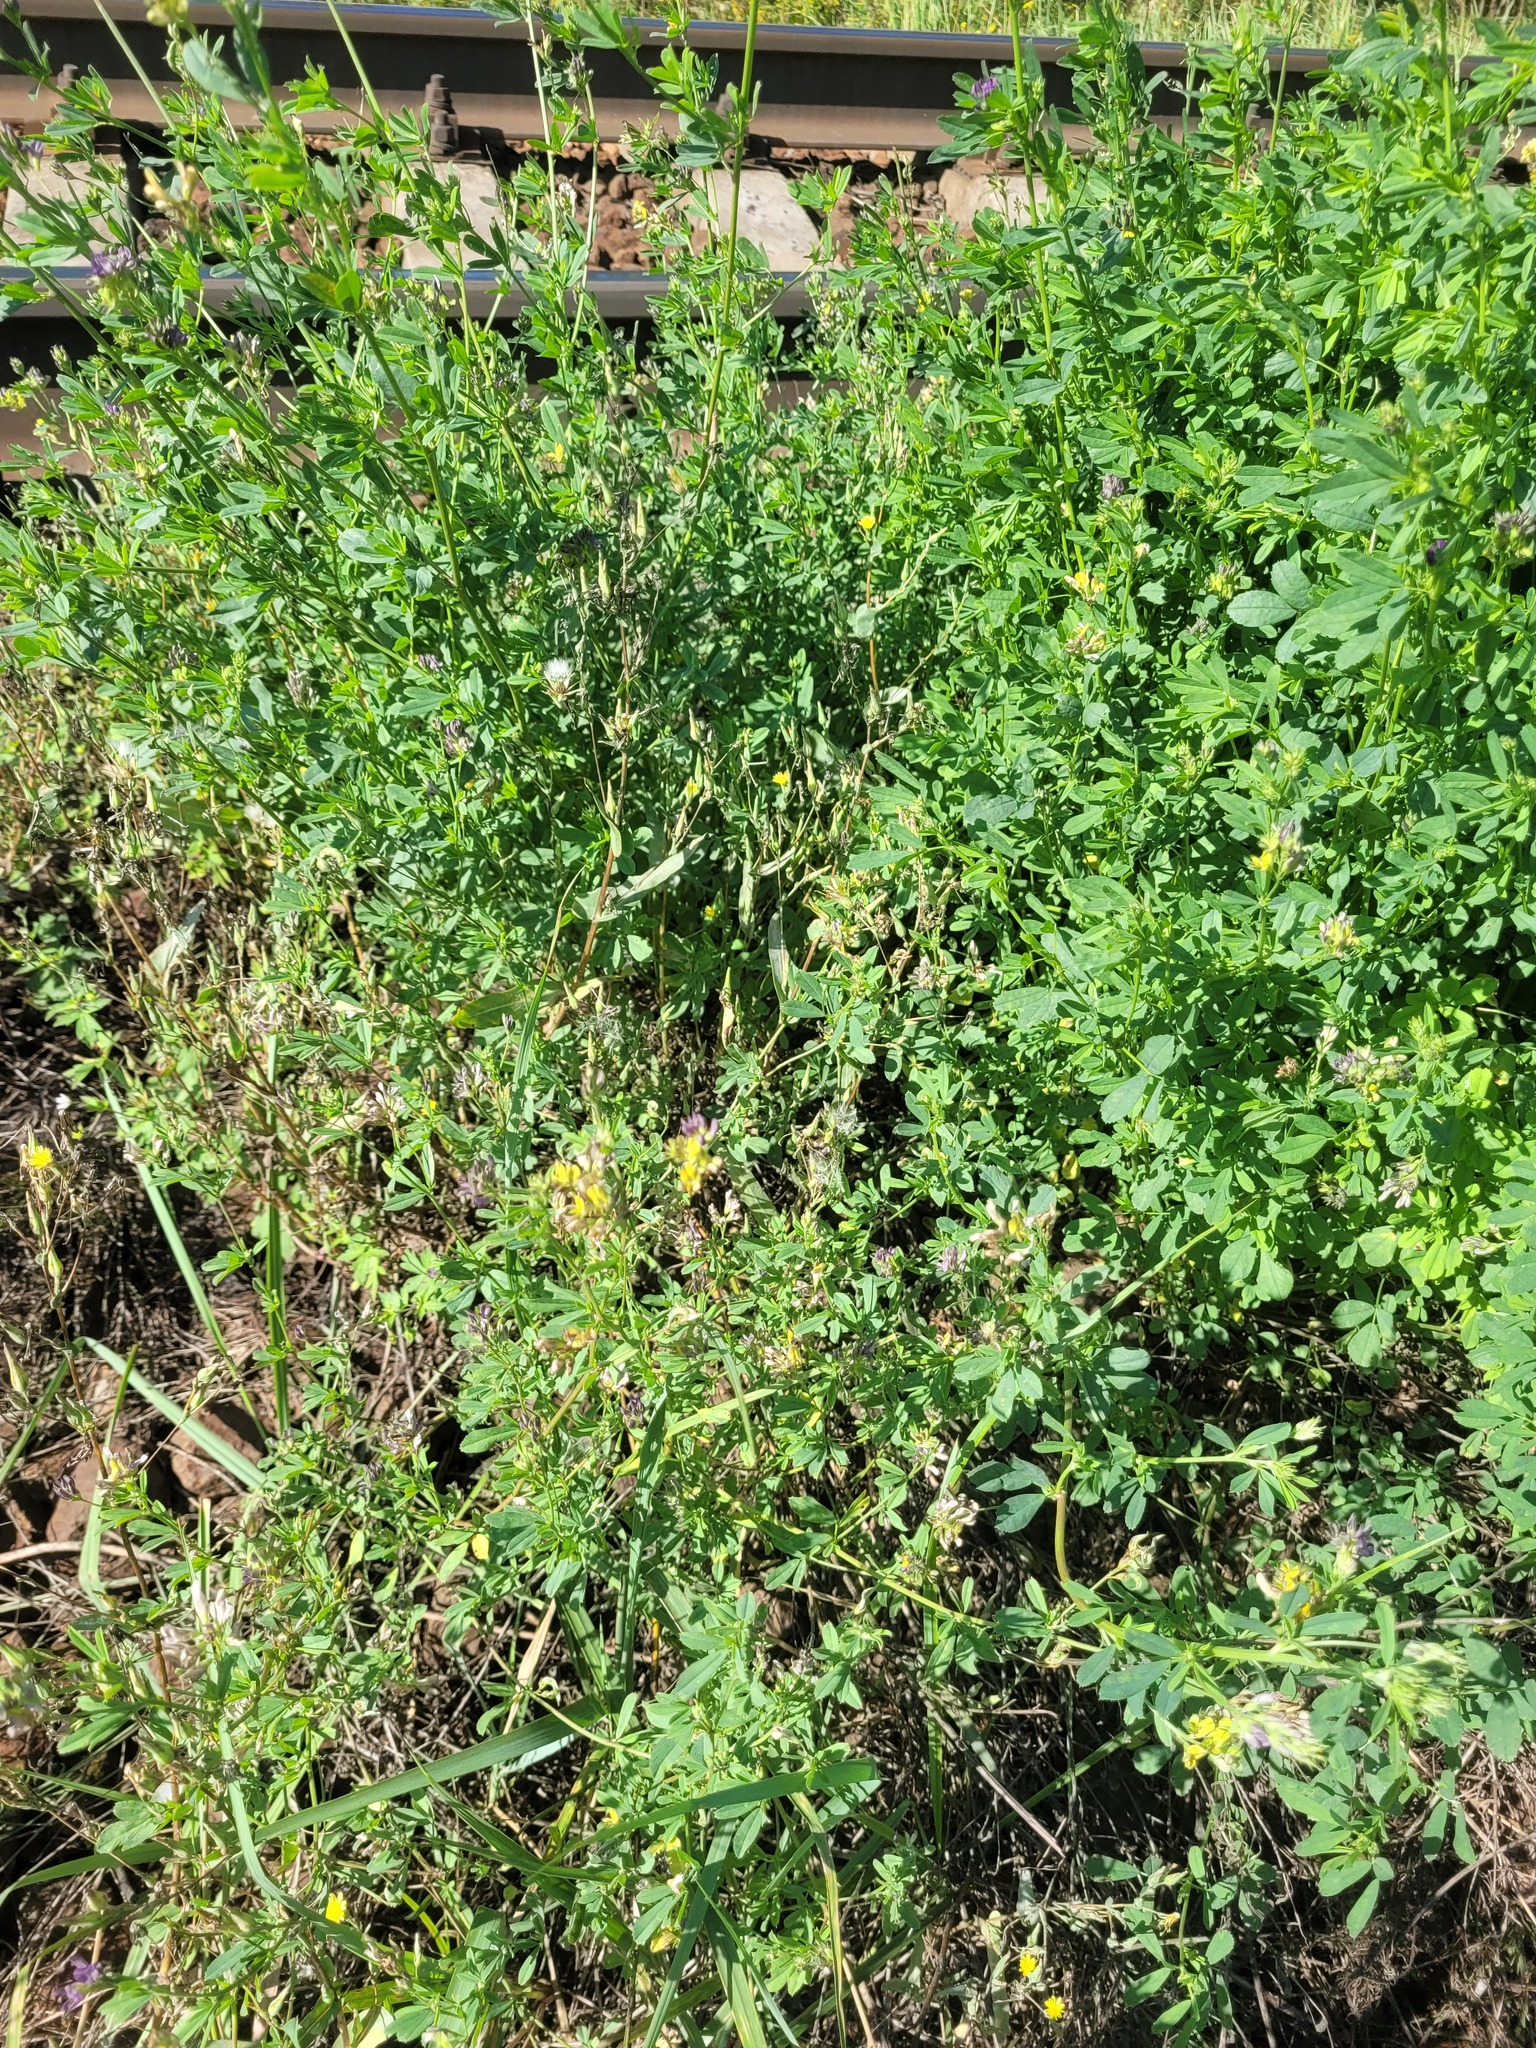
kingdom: Plantae
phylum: Tracheophyta
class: Magnoliopsida
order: Fabales
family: Fabaceae
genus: Medicago
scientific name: Medicago varia
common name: Sand lucerne
